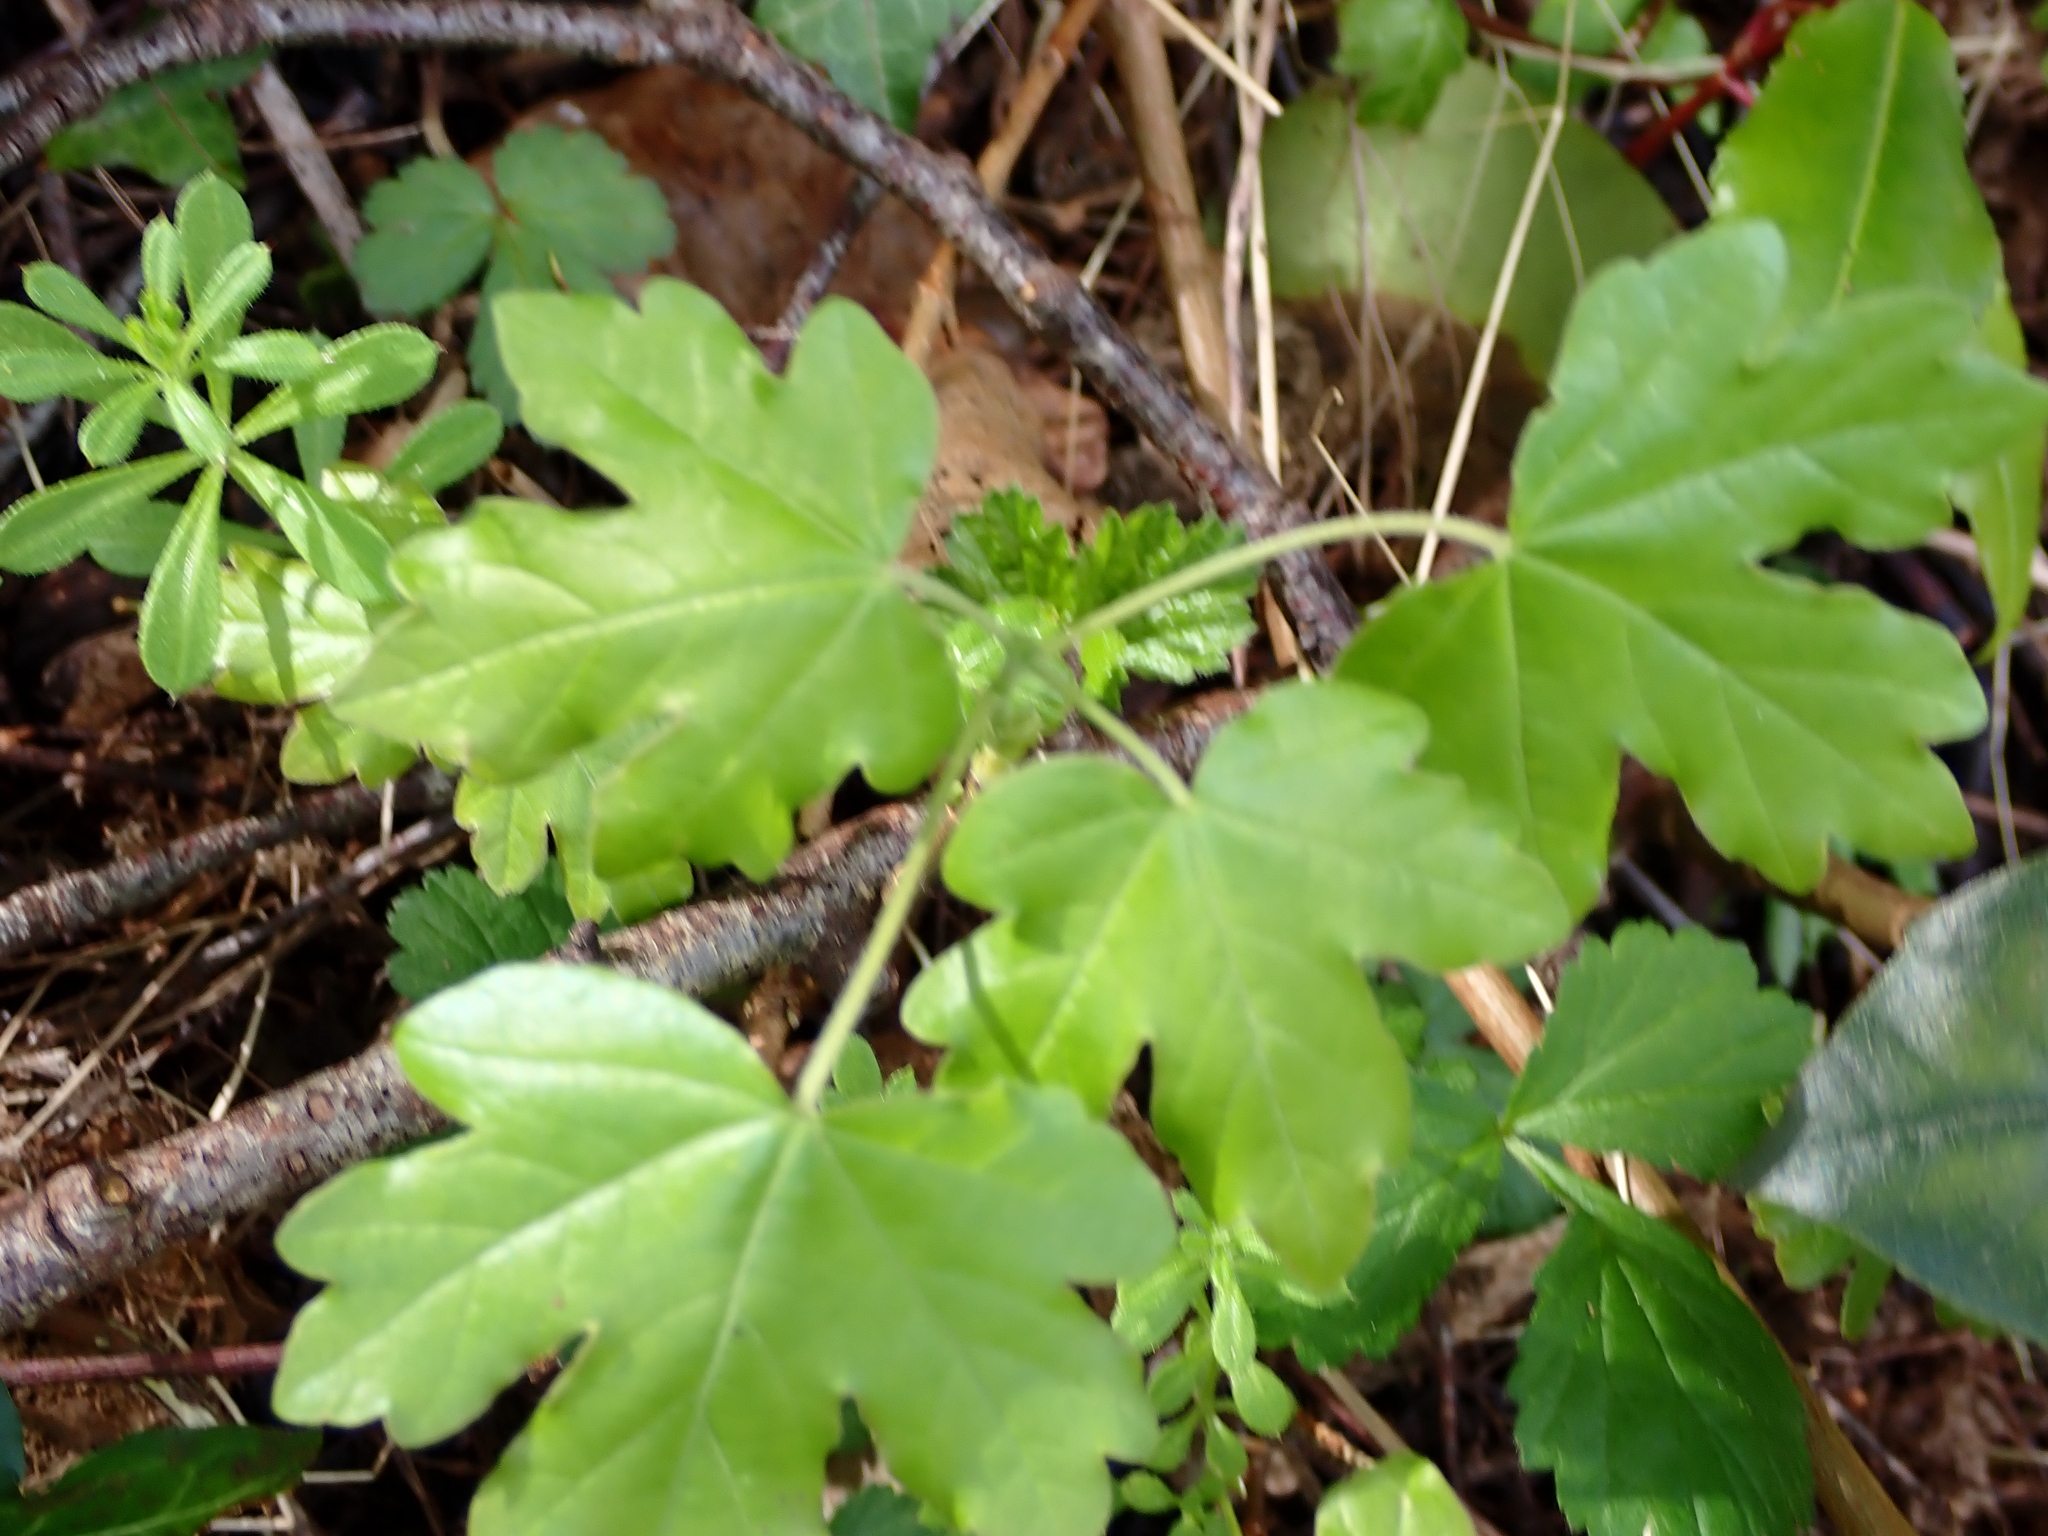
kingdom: Plantae
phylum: Tracheophyta
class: Magnoliopsida
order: Sapindales
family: Sapindaceae
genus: Acer
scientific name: Acer campestre
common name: Field maple
